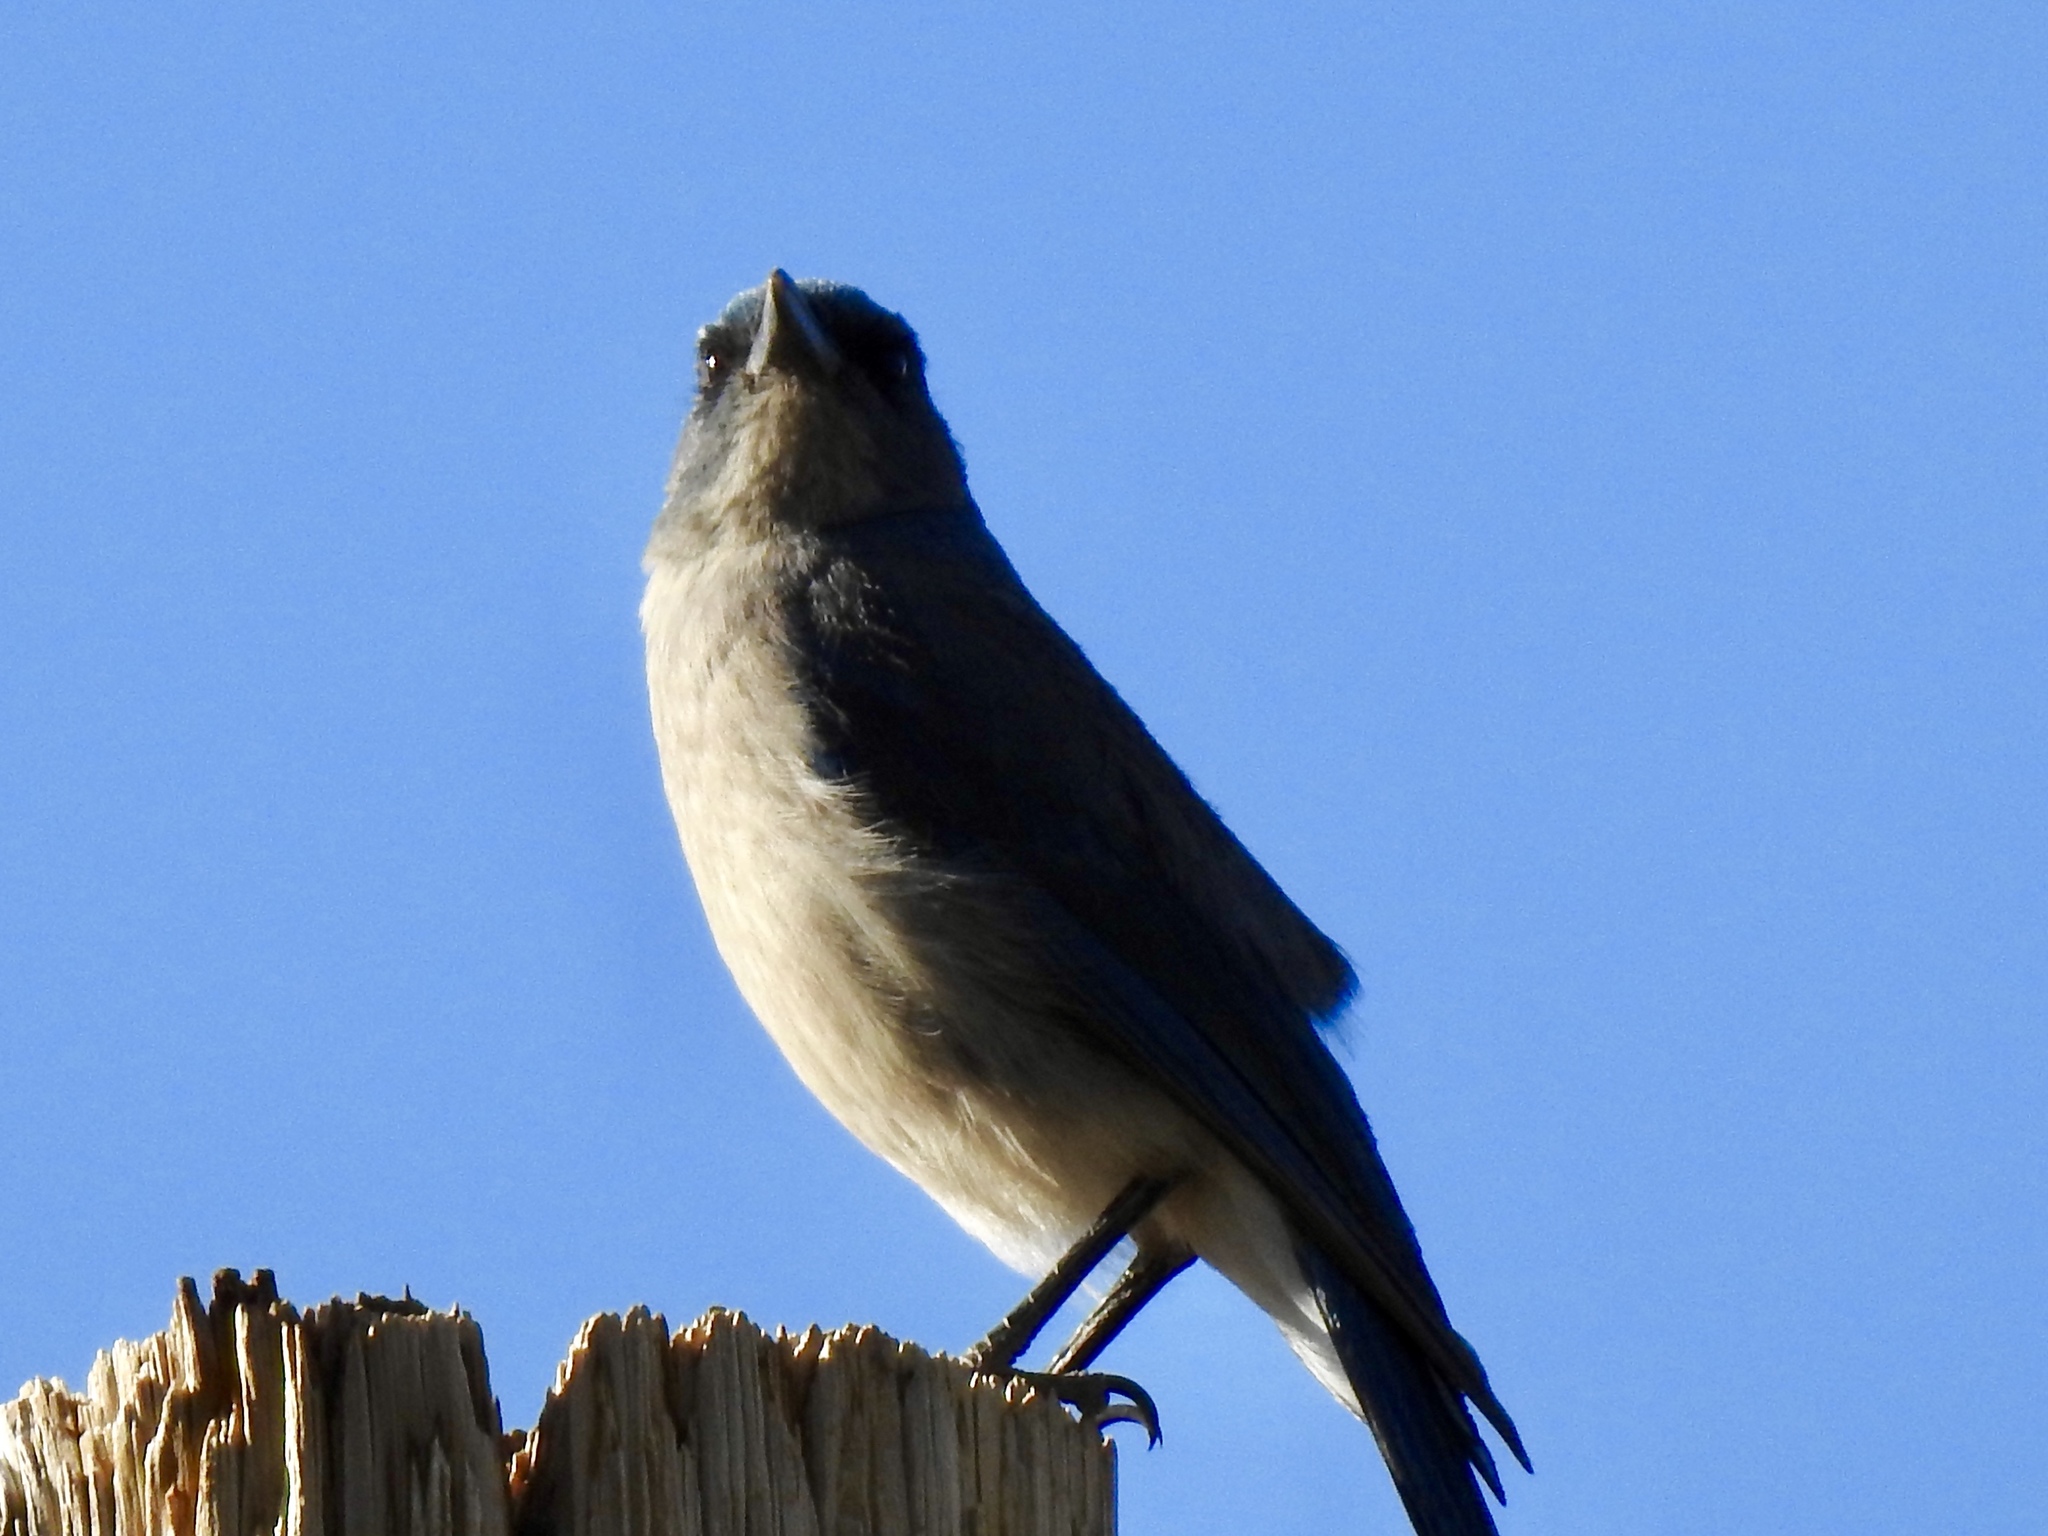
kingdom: Animalia
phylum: Chordata
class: Aves
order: Passeriformes
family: Corvidae
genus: Aphelocoma
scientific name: Aphelocoma wollweberi
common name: Mexican jay
